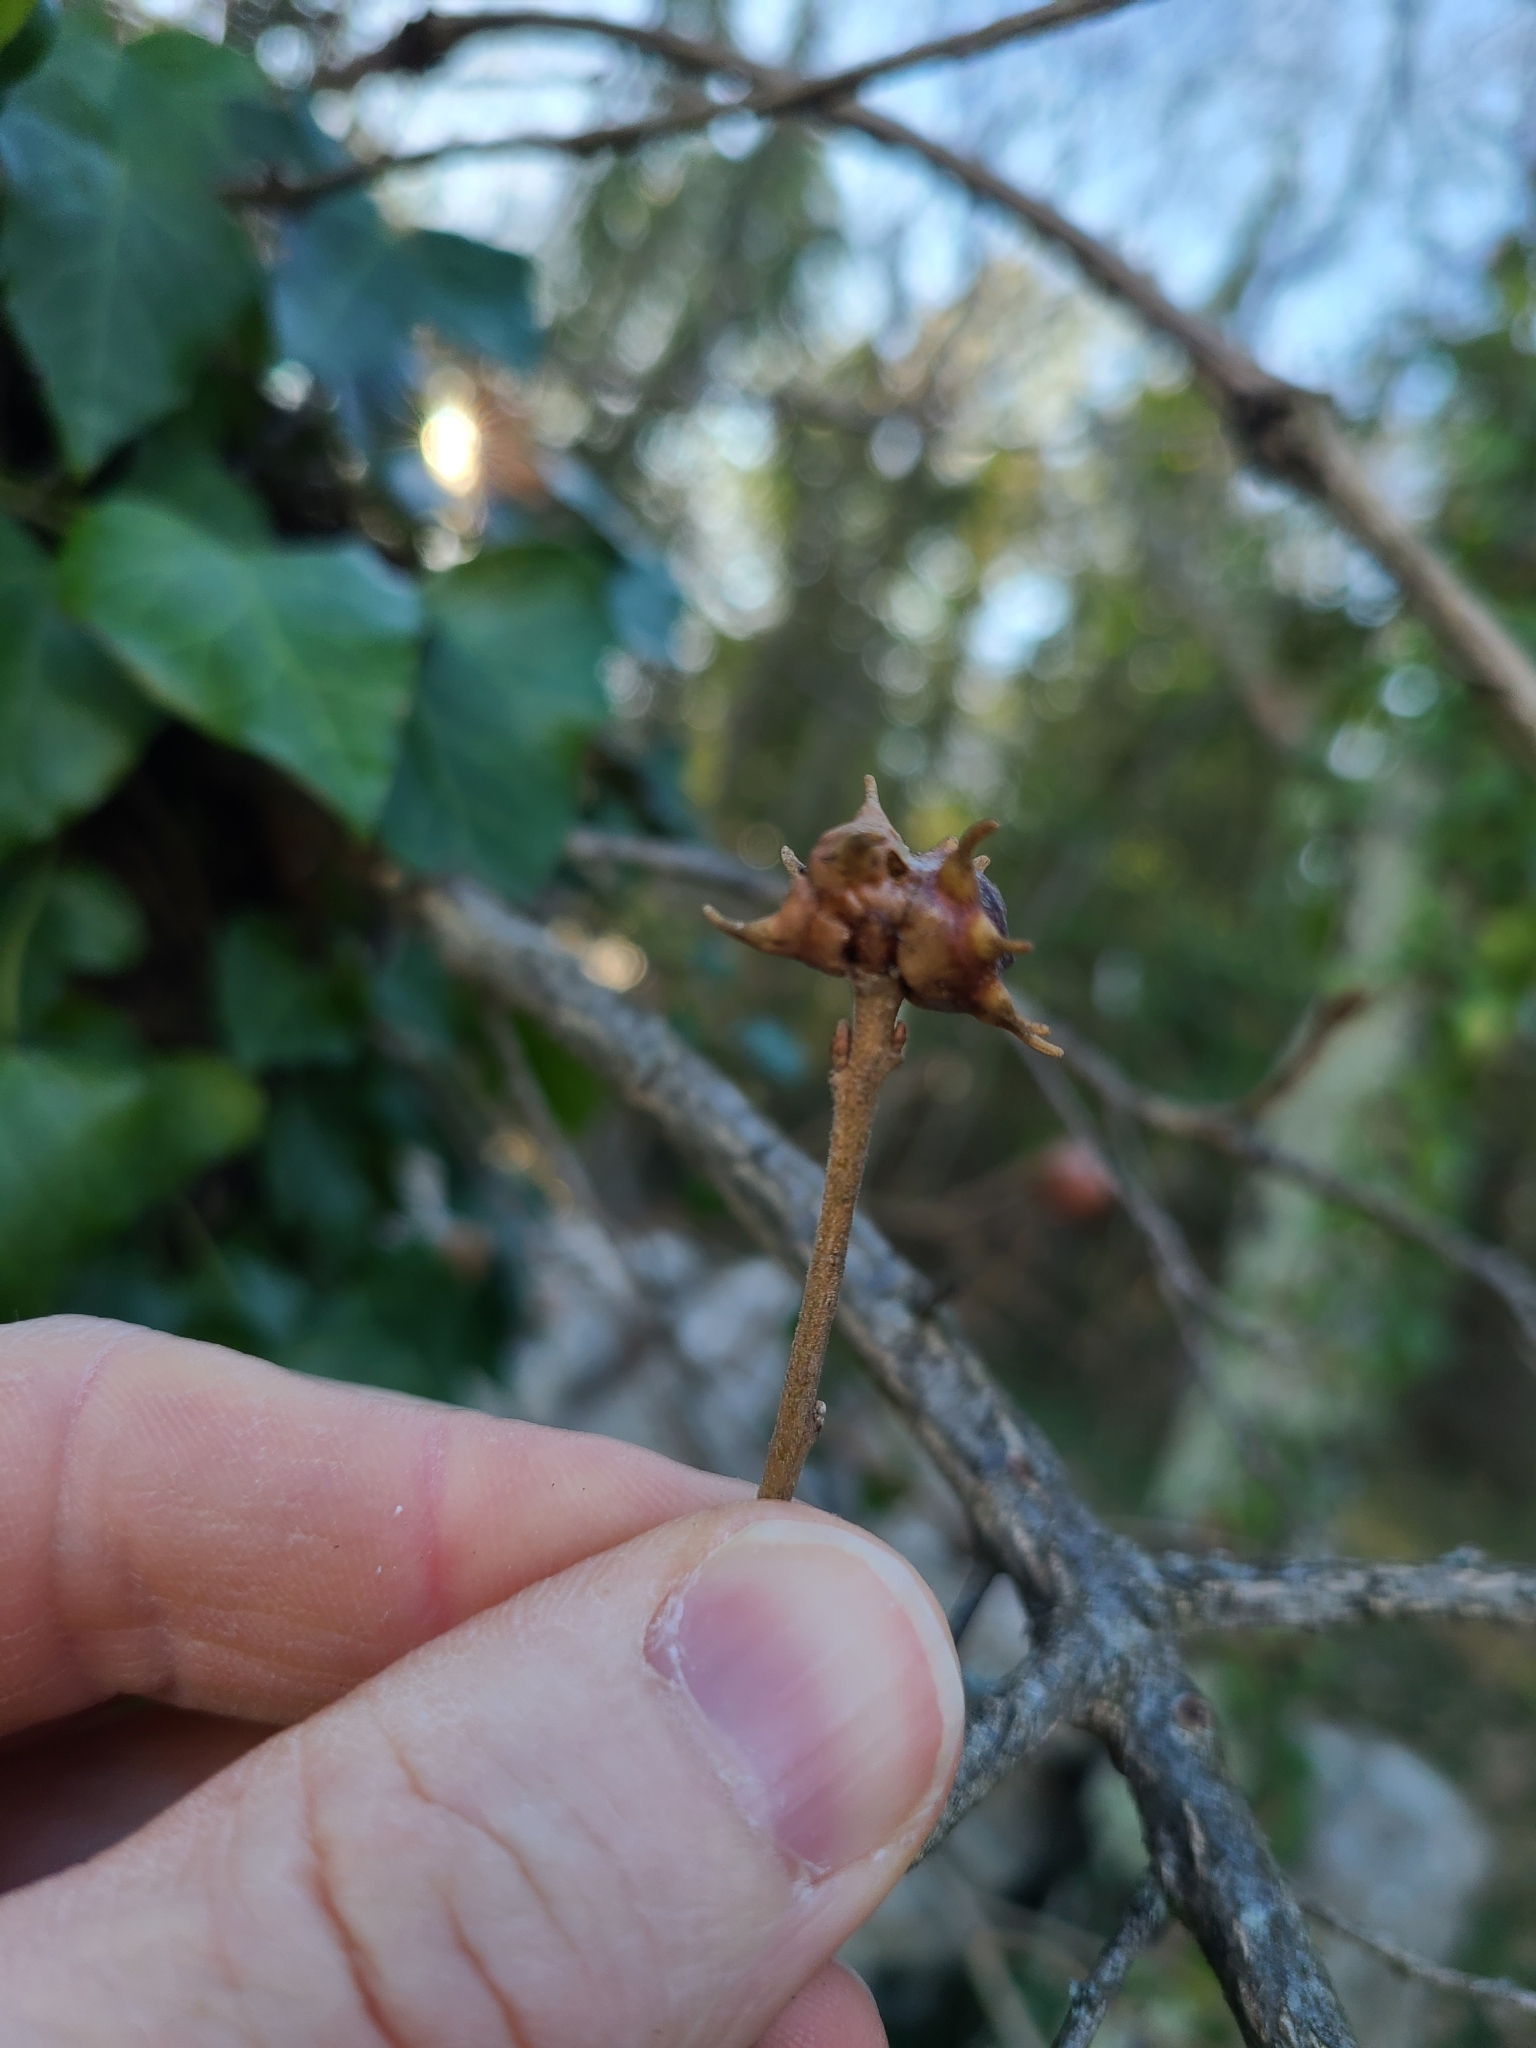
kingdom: Animalia
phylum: Arthropoda
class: Insecta
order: Hymenoptera
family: Cynipidae
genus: Andricus
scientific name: Andricus coronatus
